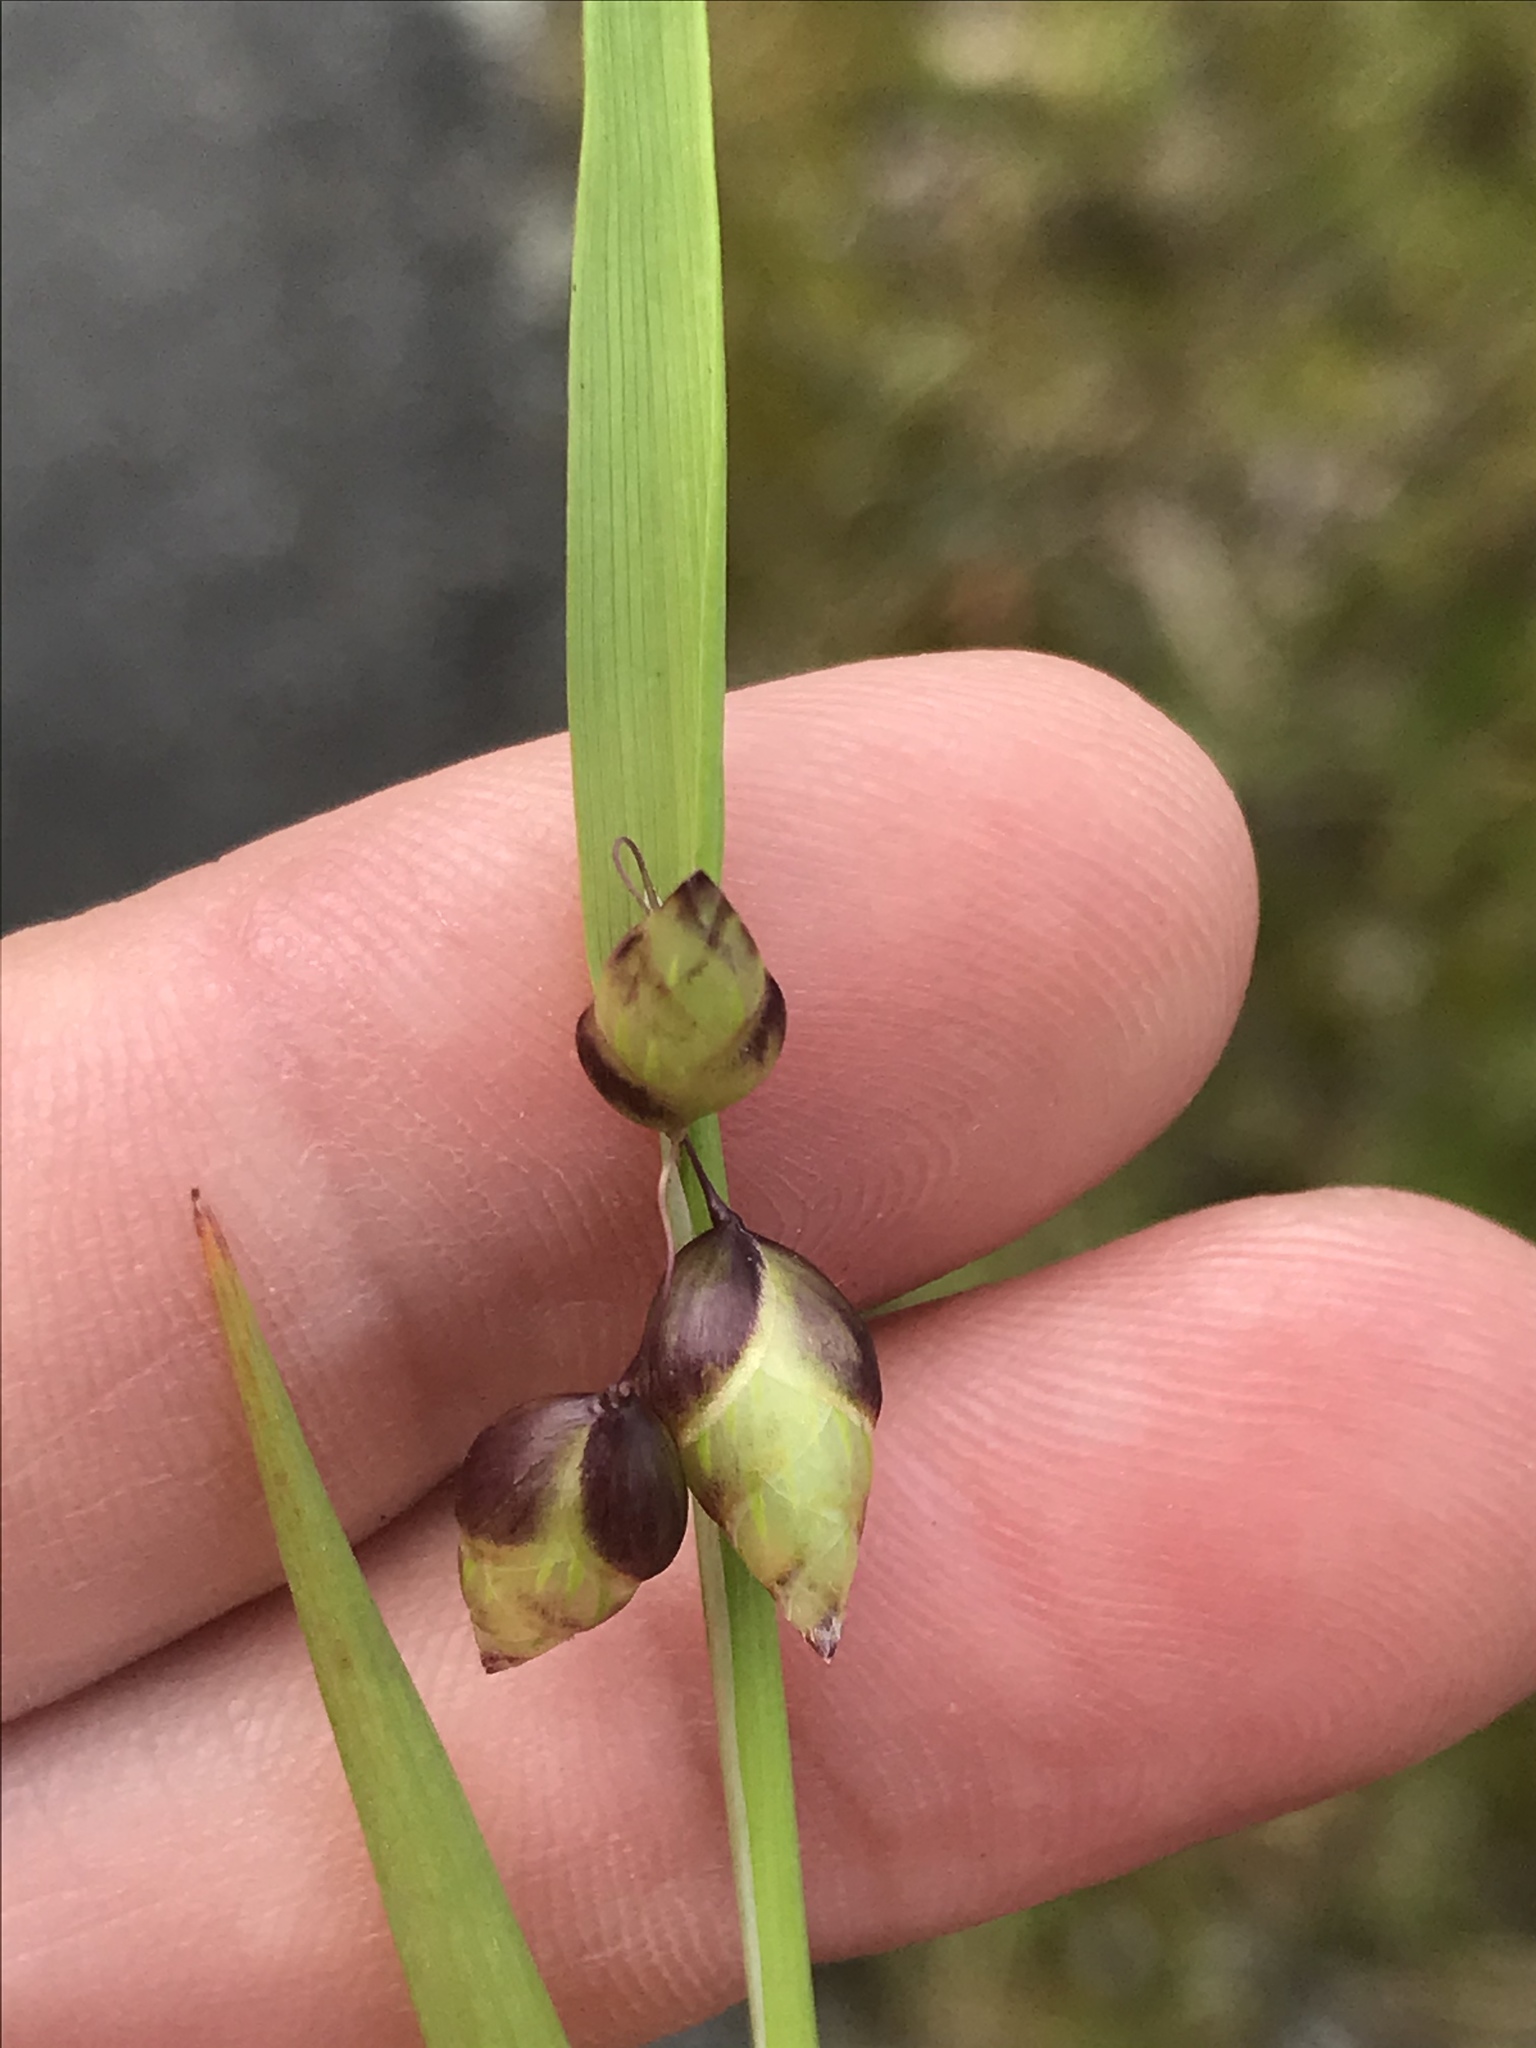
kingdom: Plantae
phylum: Tracheophyta
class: Liliopsida
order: Poales
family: Poaceae
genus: Briza
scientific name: Briza minor
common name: Lesser quaking-grass
